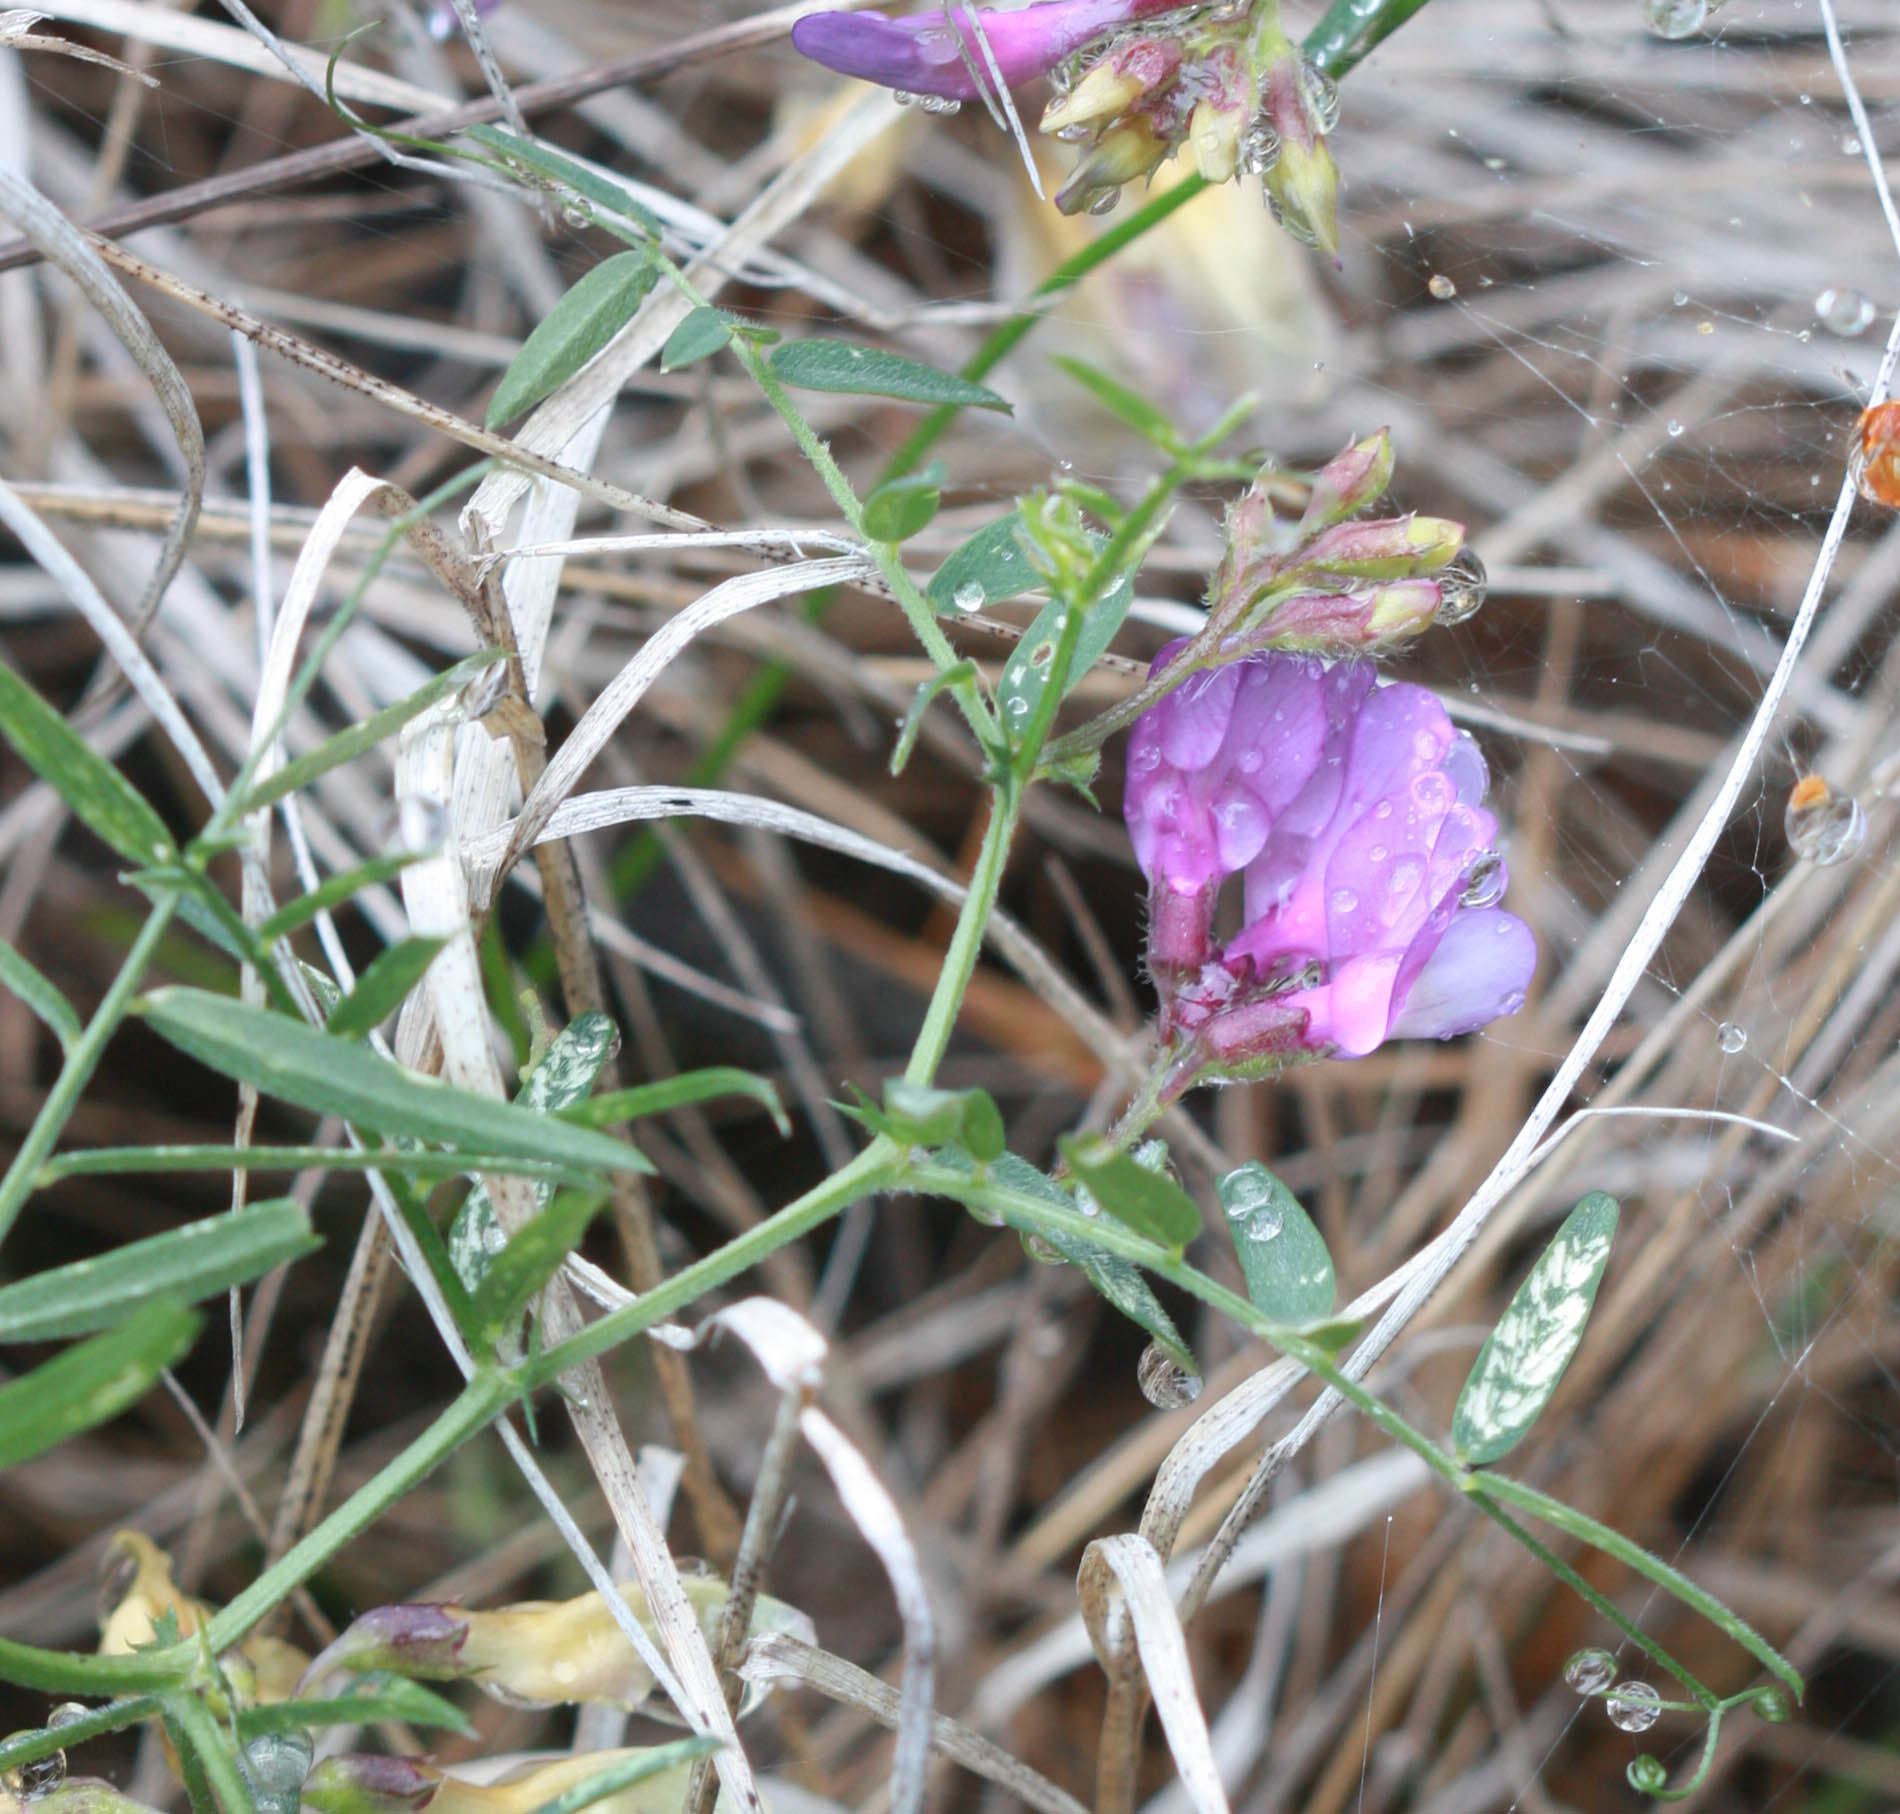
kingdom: Plantae
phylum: Tracheophyta
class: Magnoliopsida
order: Fabales
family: Fabaceae
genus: Vicia
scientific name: Vicia americana
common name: American vetch
